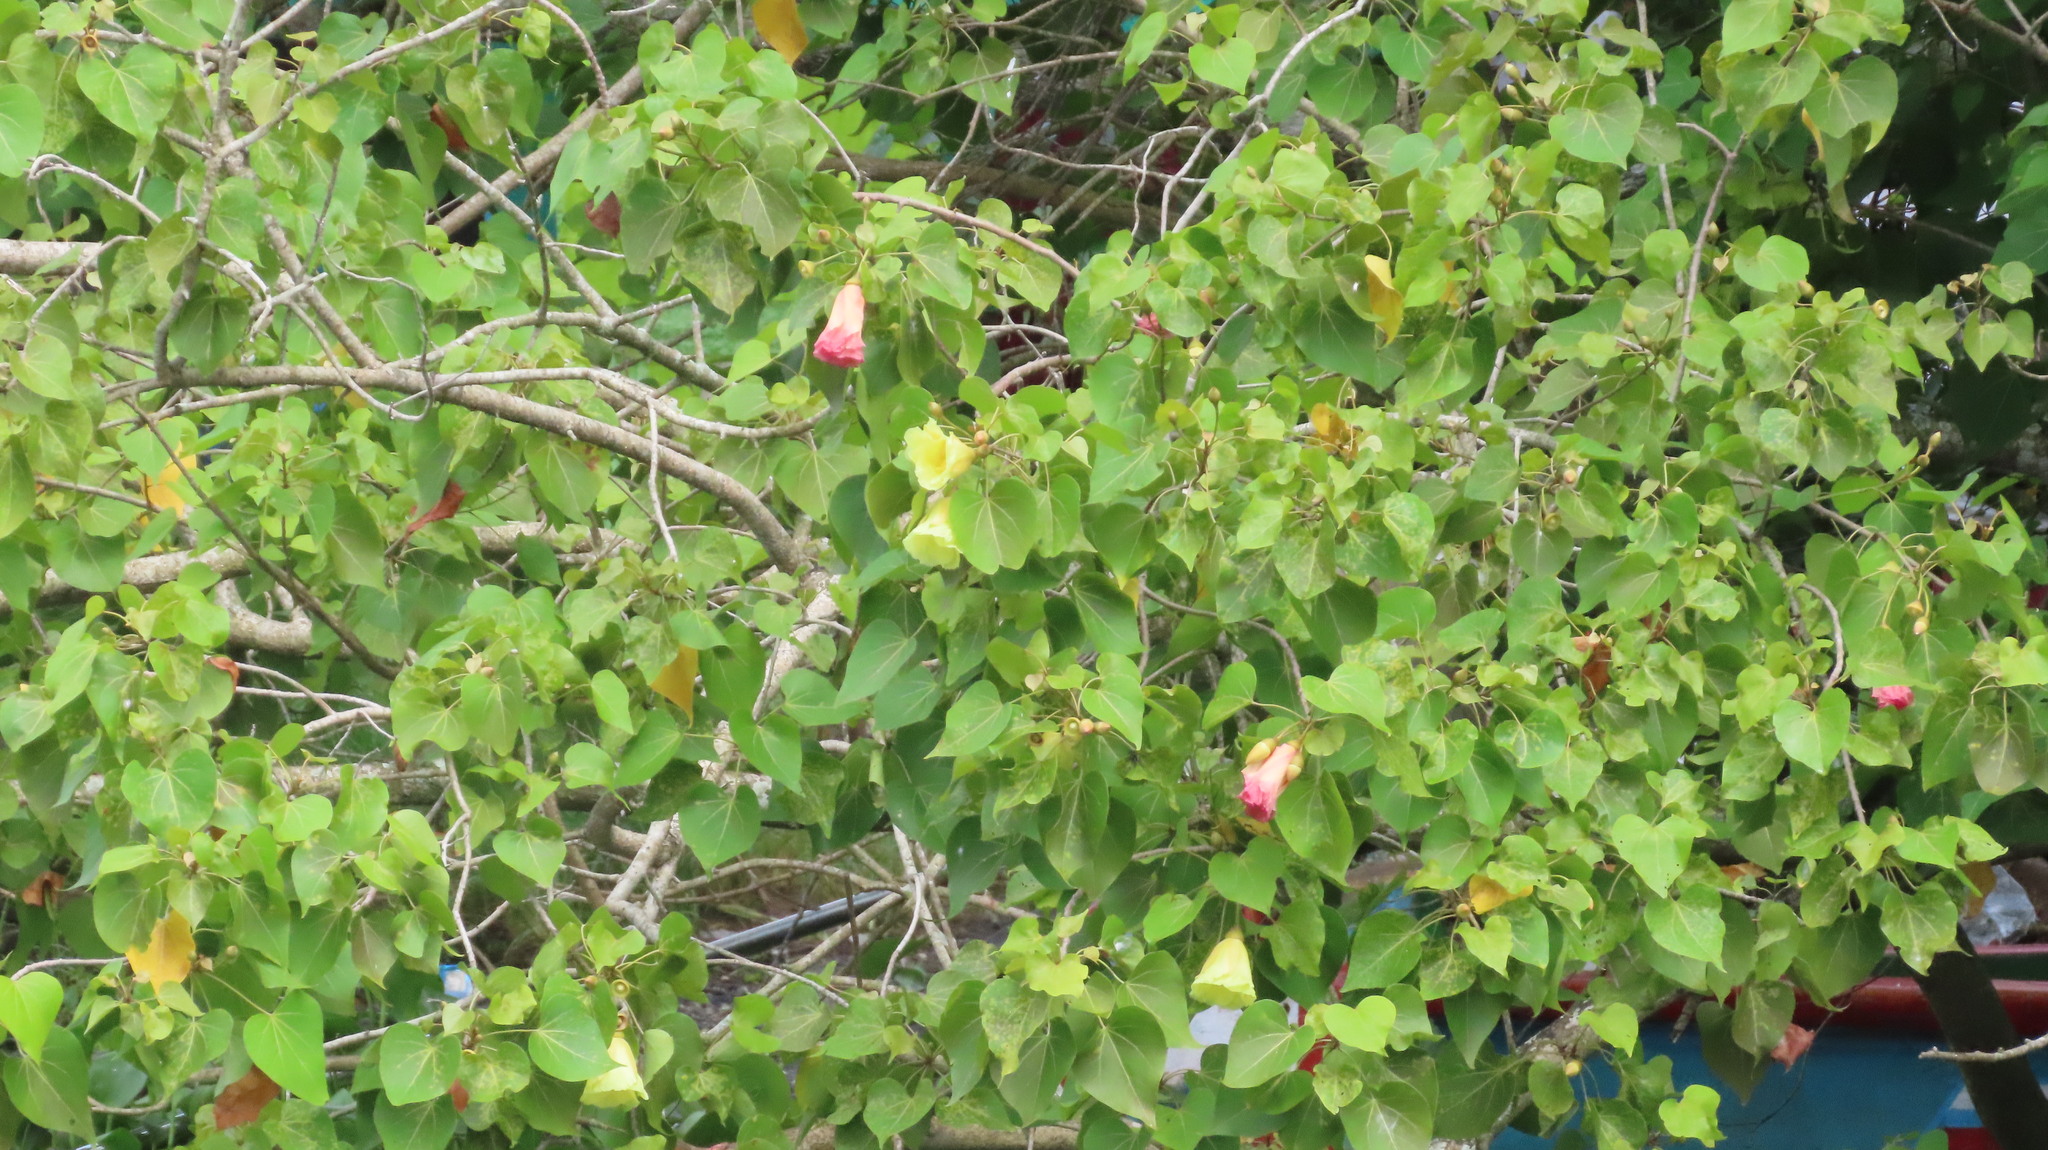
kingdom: Plantae
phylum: Tracheophyta
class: Magnoliopsida
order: Malvales
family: Malvaceae
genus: Thespesia
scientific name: Thespesia populnea
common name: Seaside mahoe
